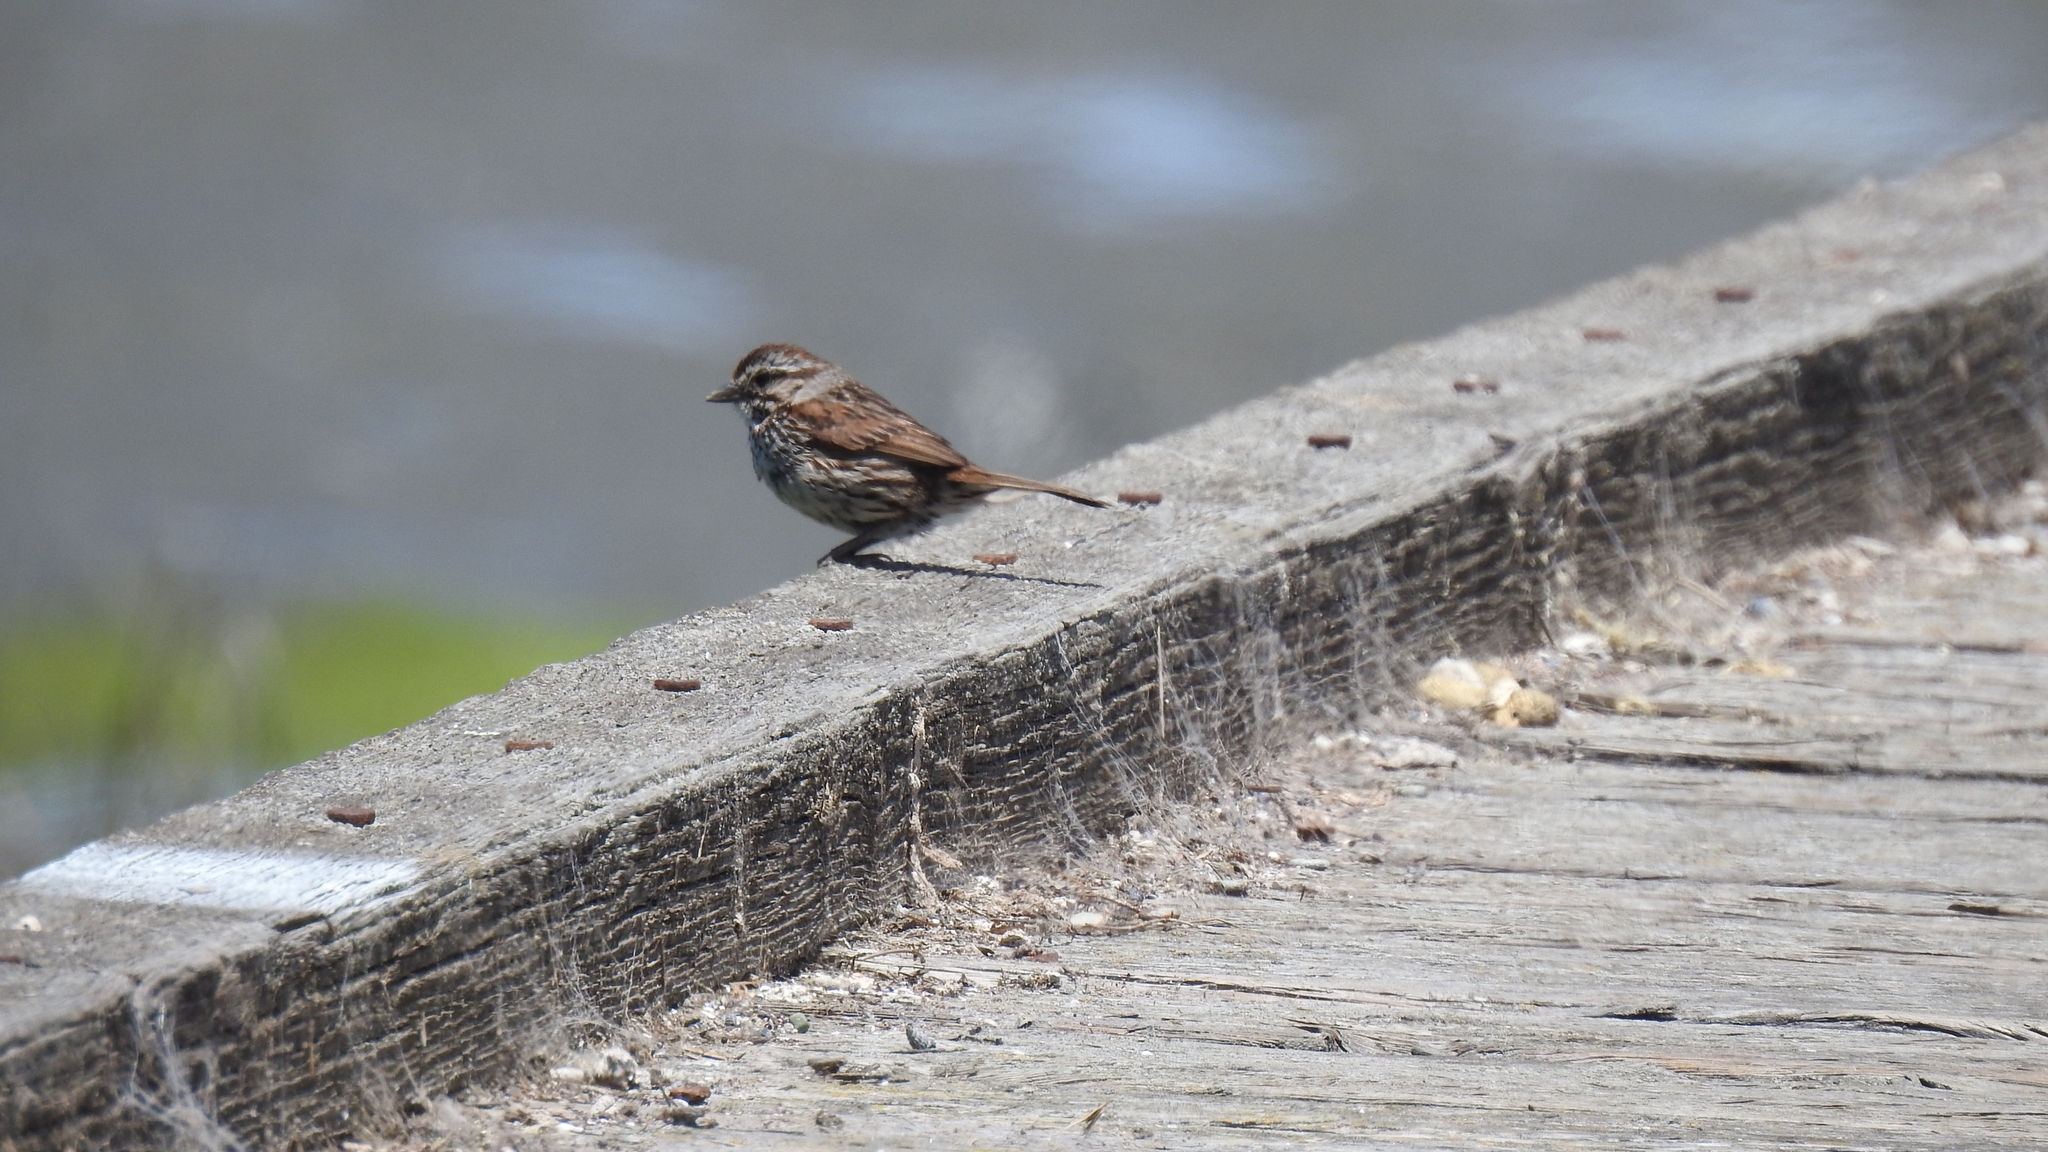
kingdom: Animalia
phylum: Chordata
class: Aves
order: Passeriformes
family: Passerellidae
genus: Melospiza
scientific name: Melospiza melodia
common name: Song sparrow
